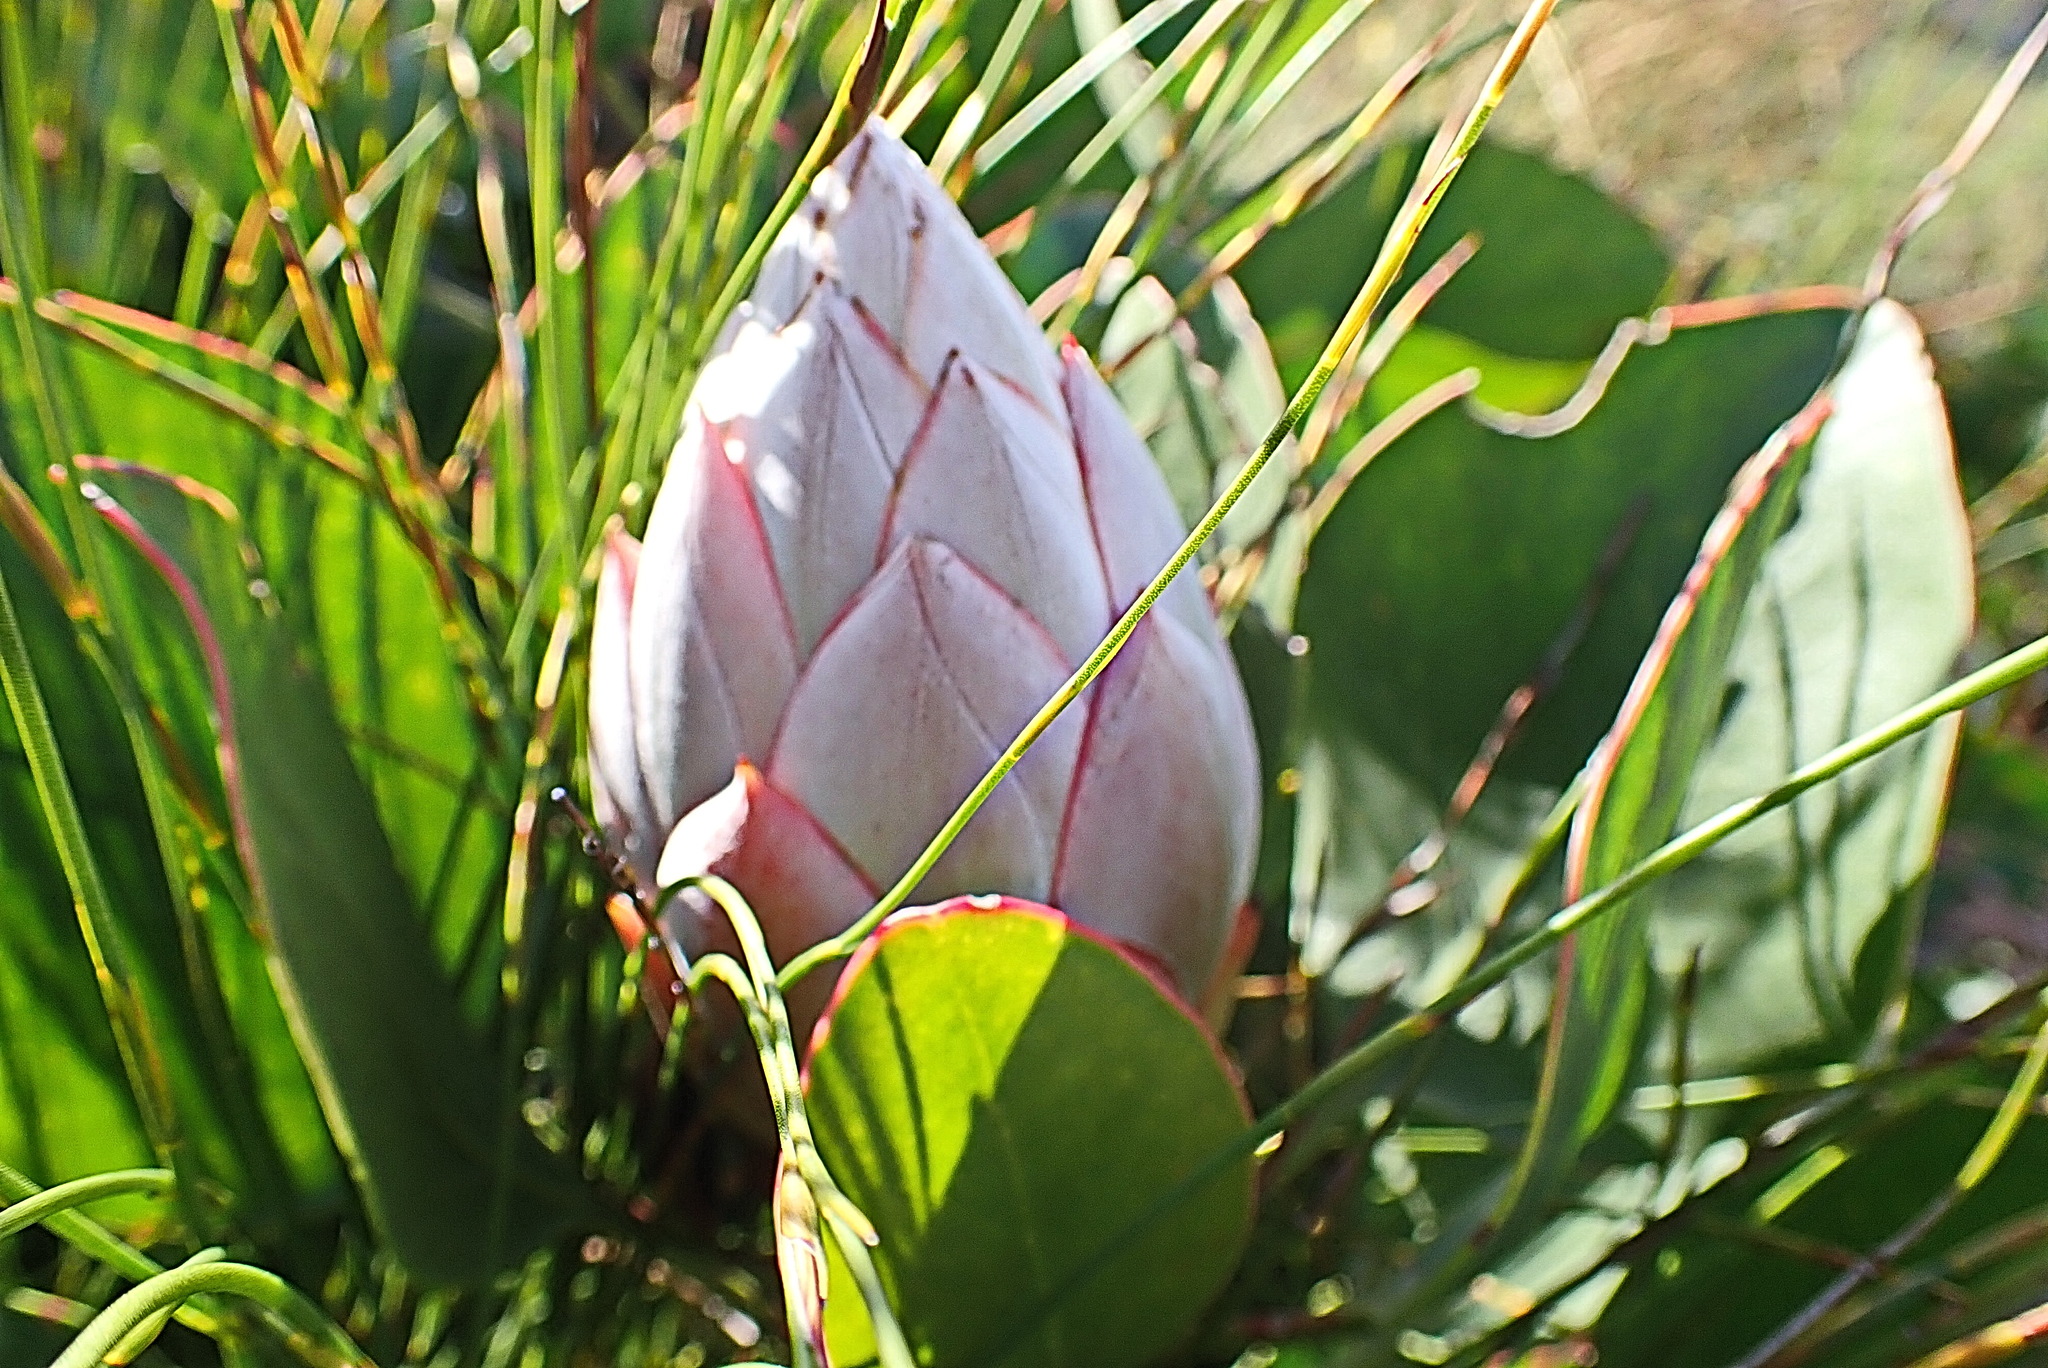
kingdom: Plantae
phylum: Tracheophyta
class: Magnoliopsida
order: Proteales
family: Proteaceae
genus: Protea
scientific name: Protea cynaroides
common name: King protea
